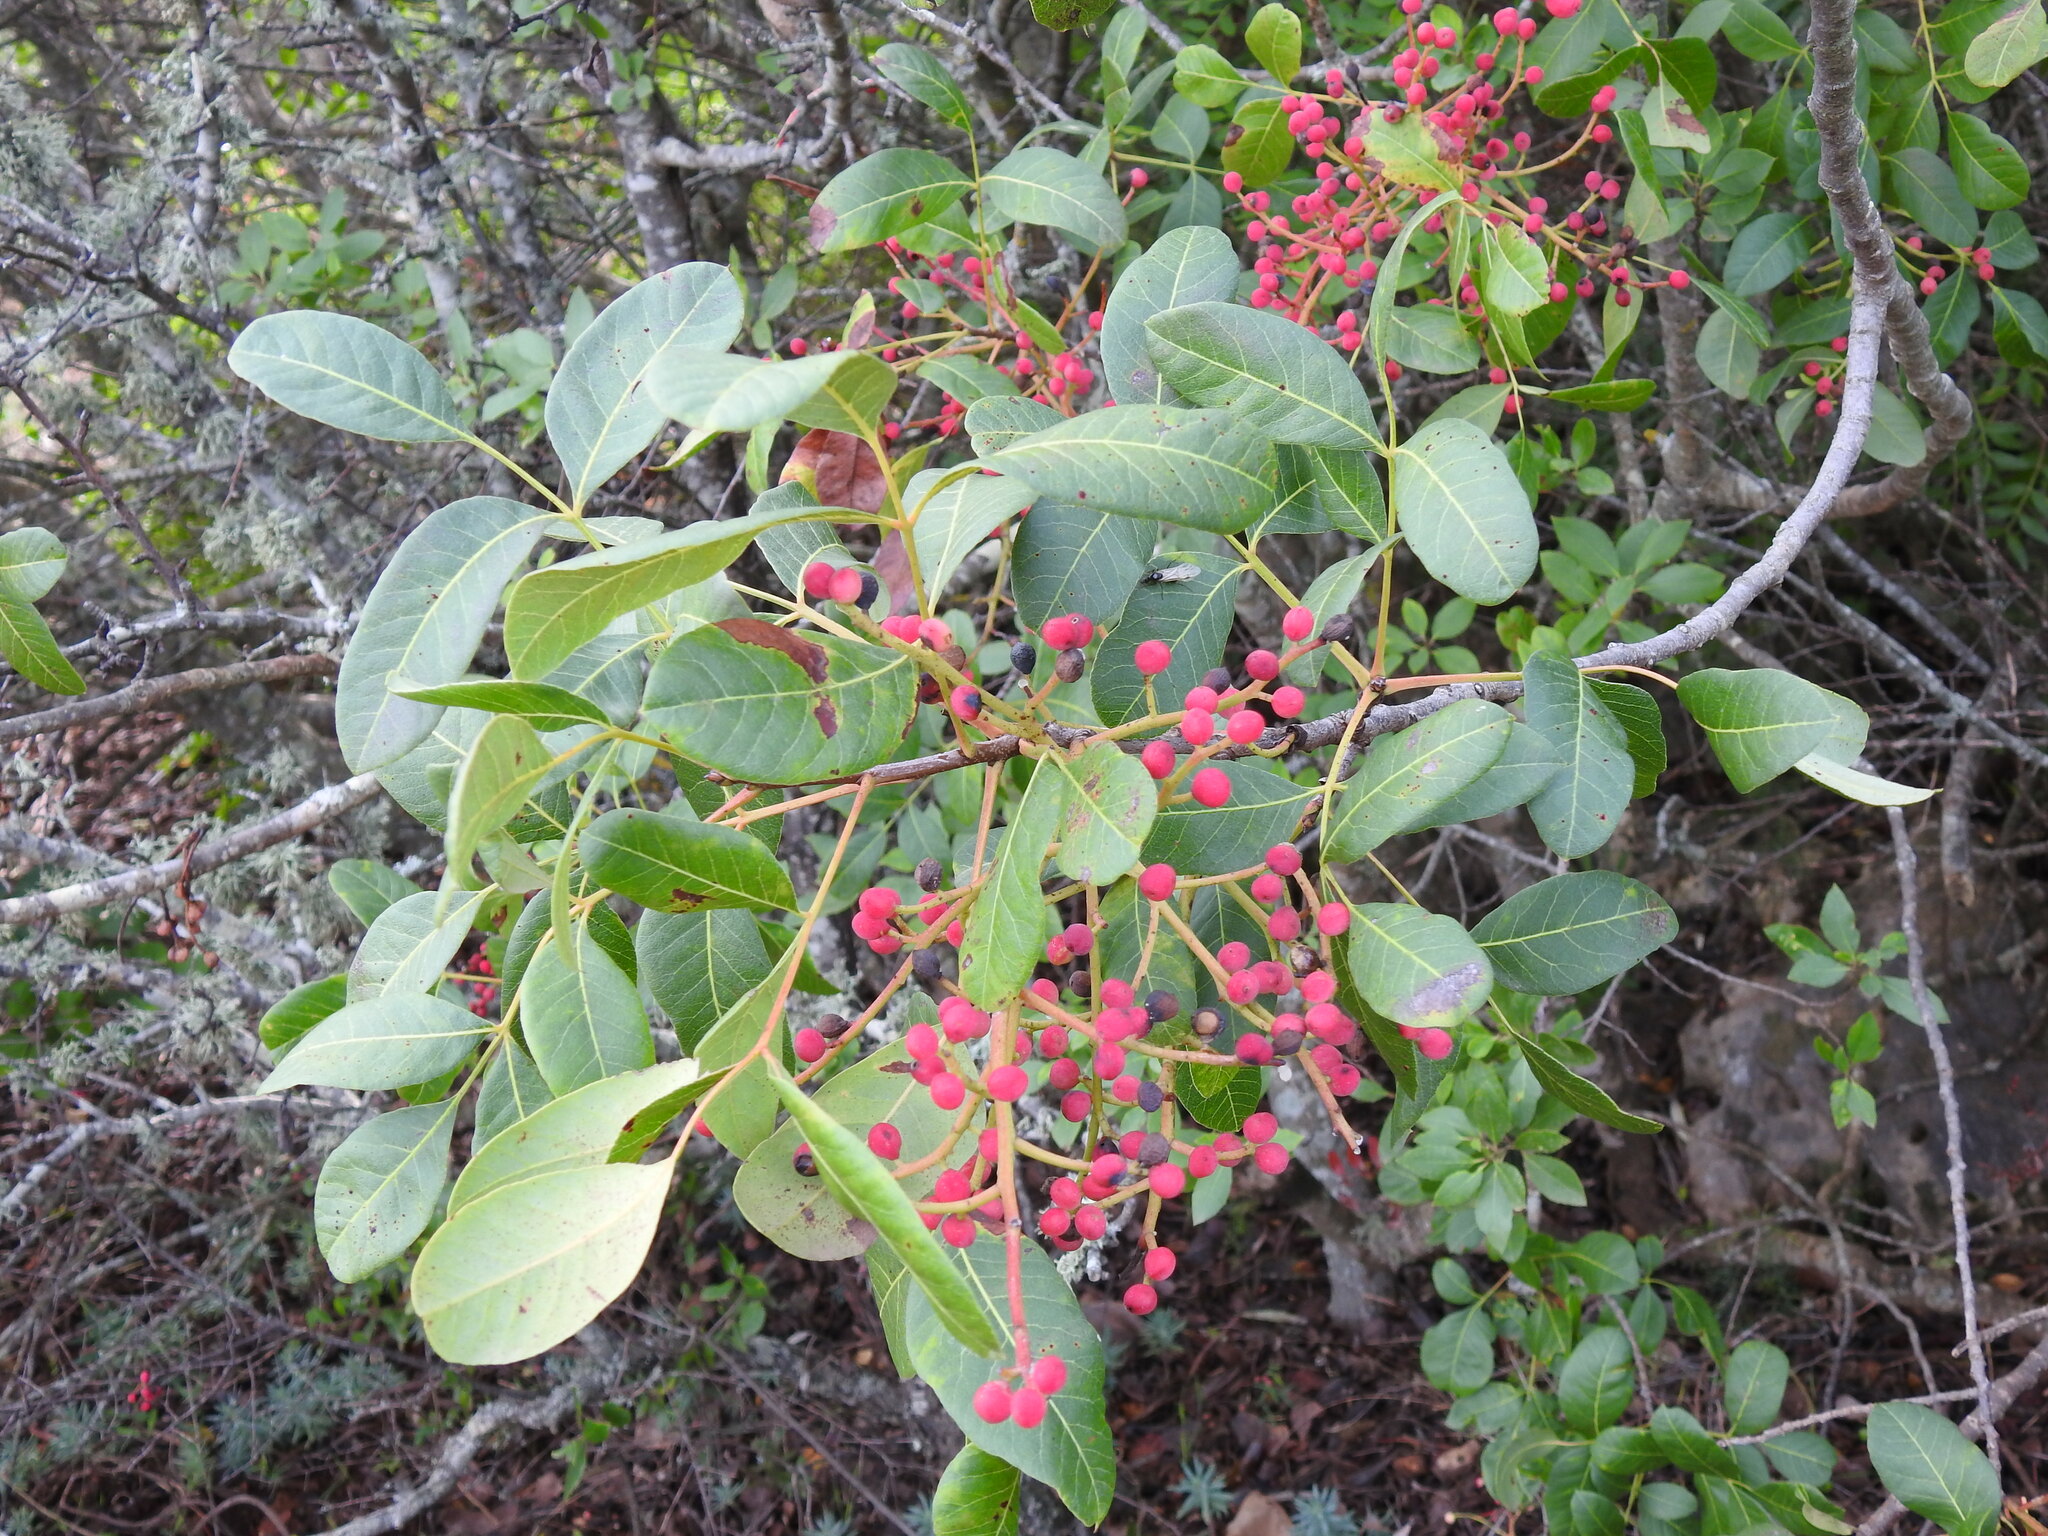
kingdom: Plantae
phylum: Tracheophyta
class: Magnoliopsida
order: Sapindales
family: Anacardiaceae
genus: Pistacia
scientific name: Pistacia terebinthus
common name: Terebinth
